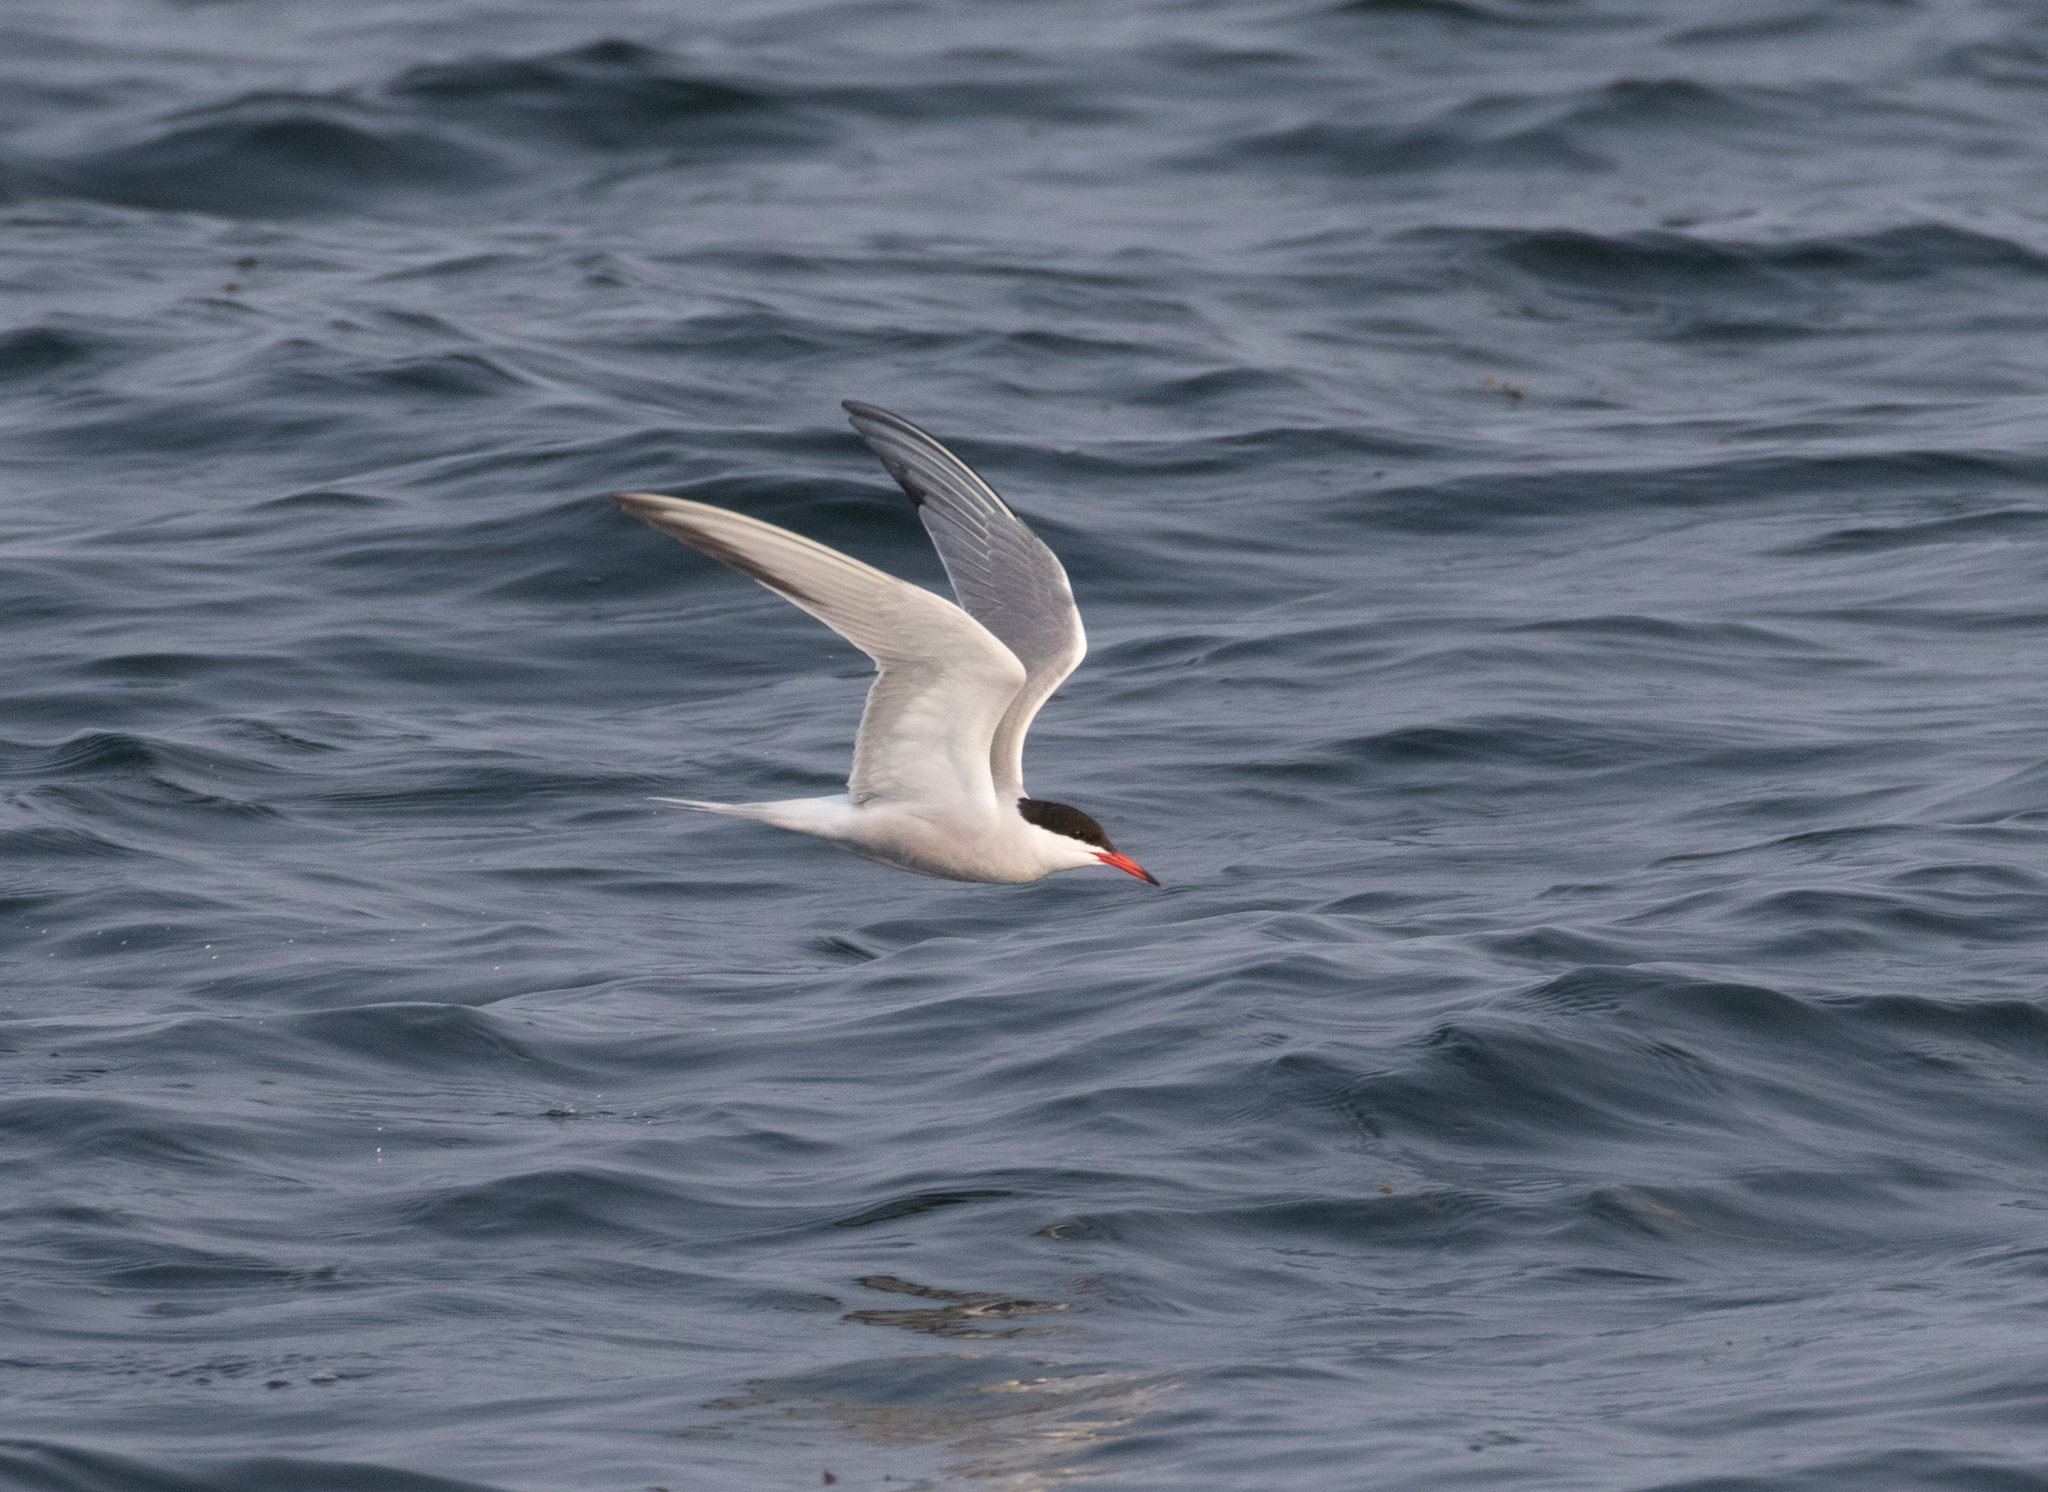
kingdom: Animalia
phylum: Chordata
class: Aves
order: Charadriiformes
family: Laridae
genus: Sterna
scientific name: Sterna hirundo
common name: Common tern
